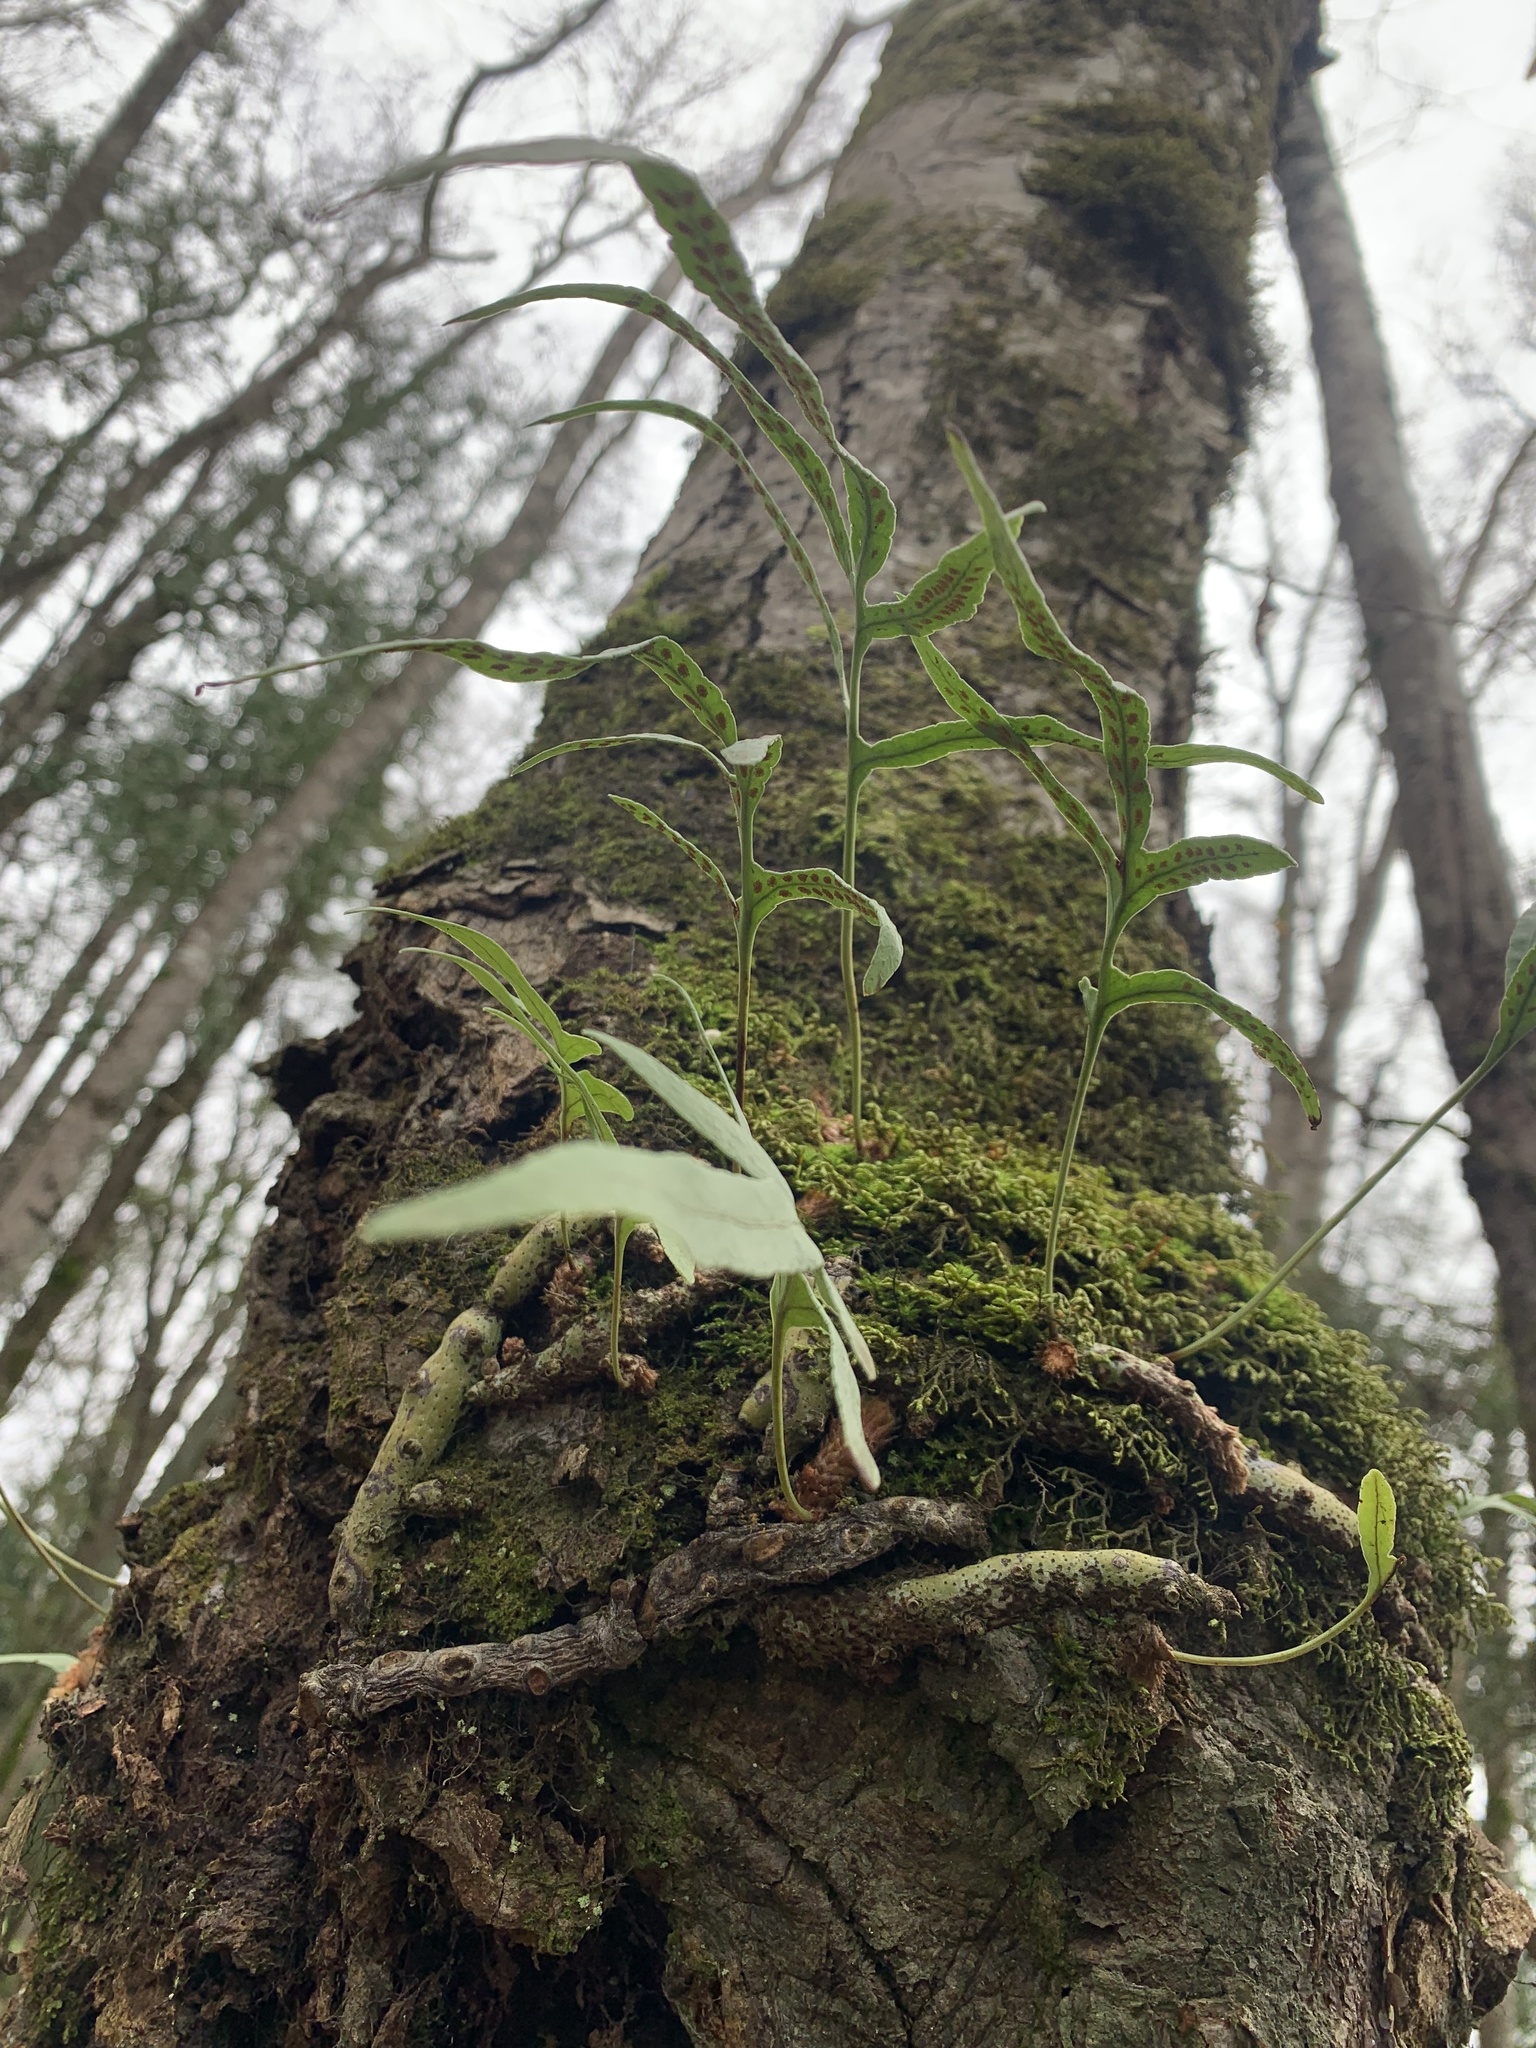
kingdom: Plantae
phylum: Tracheophyta
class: Polypodiopsida
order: Polypodiales
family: Polypodiaceae
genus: Synammia
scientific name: Synammia feuillei
